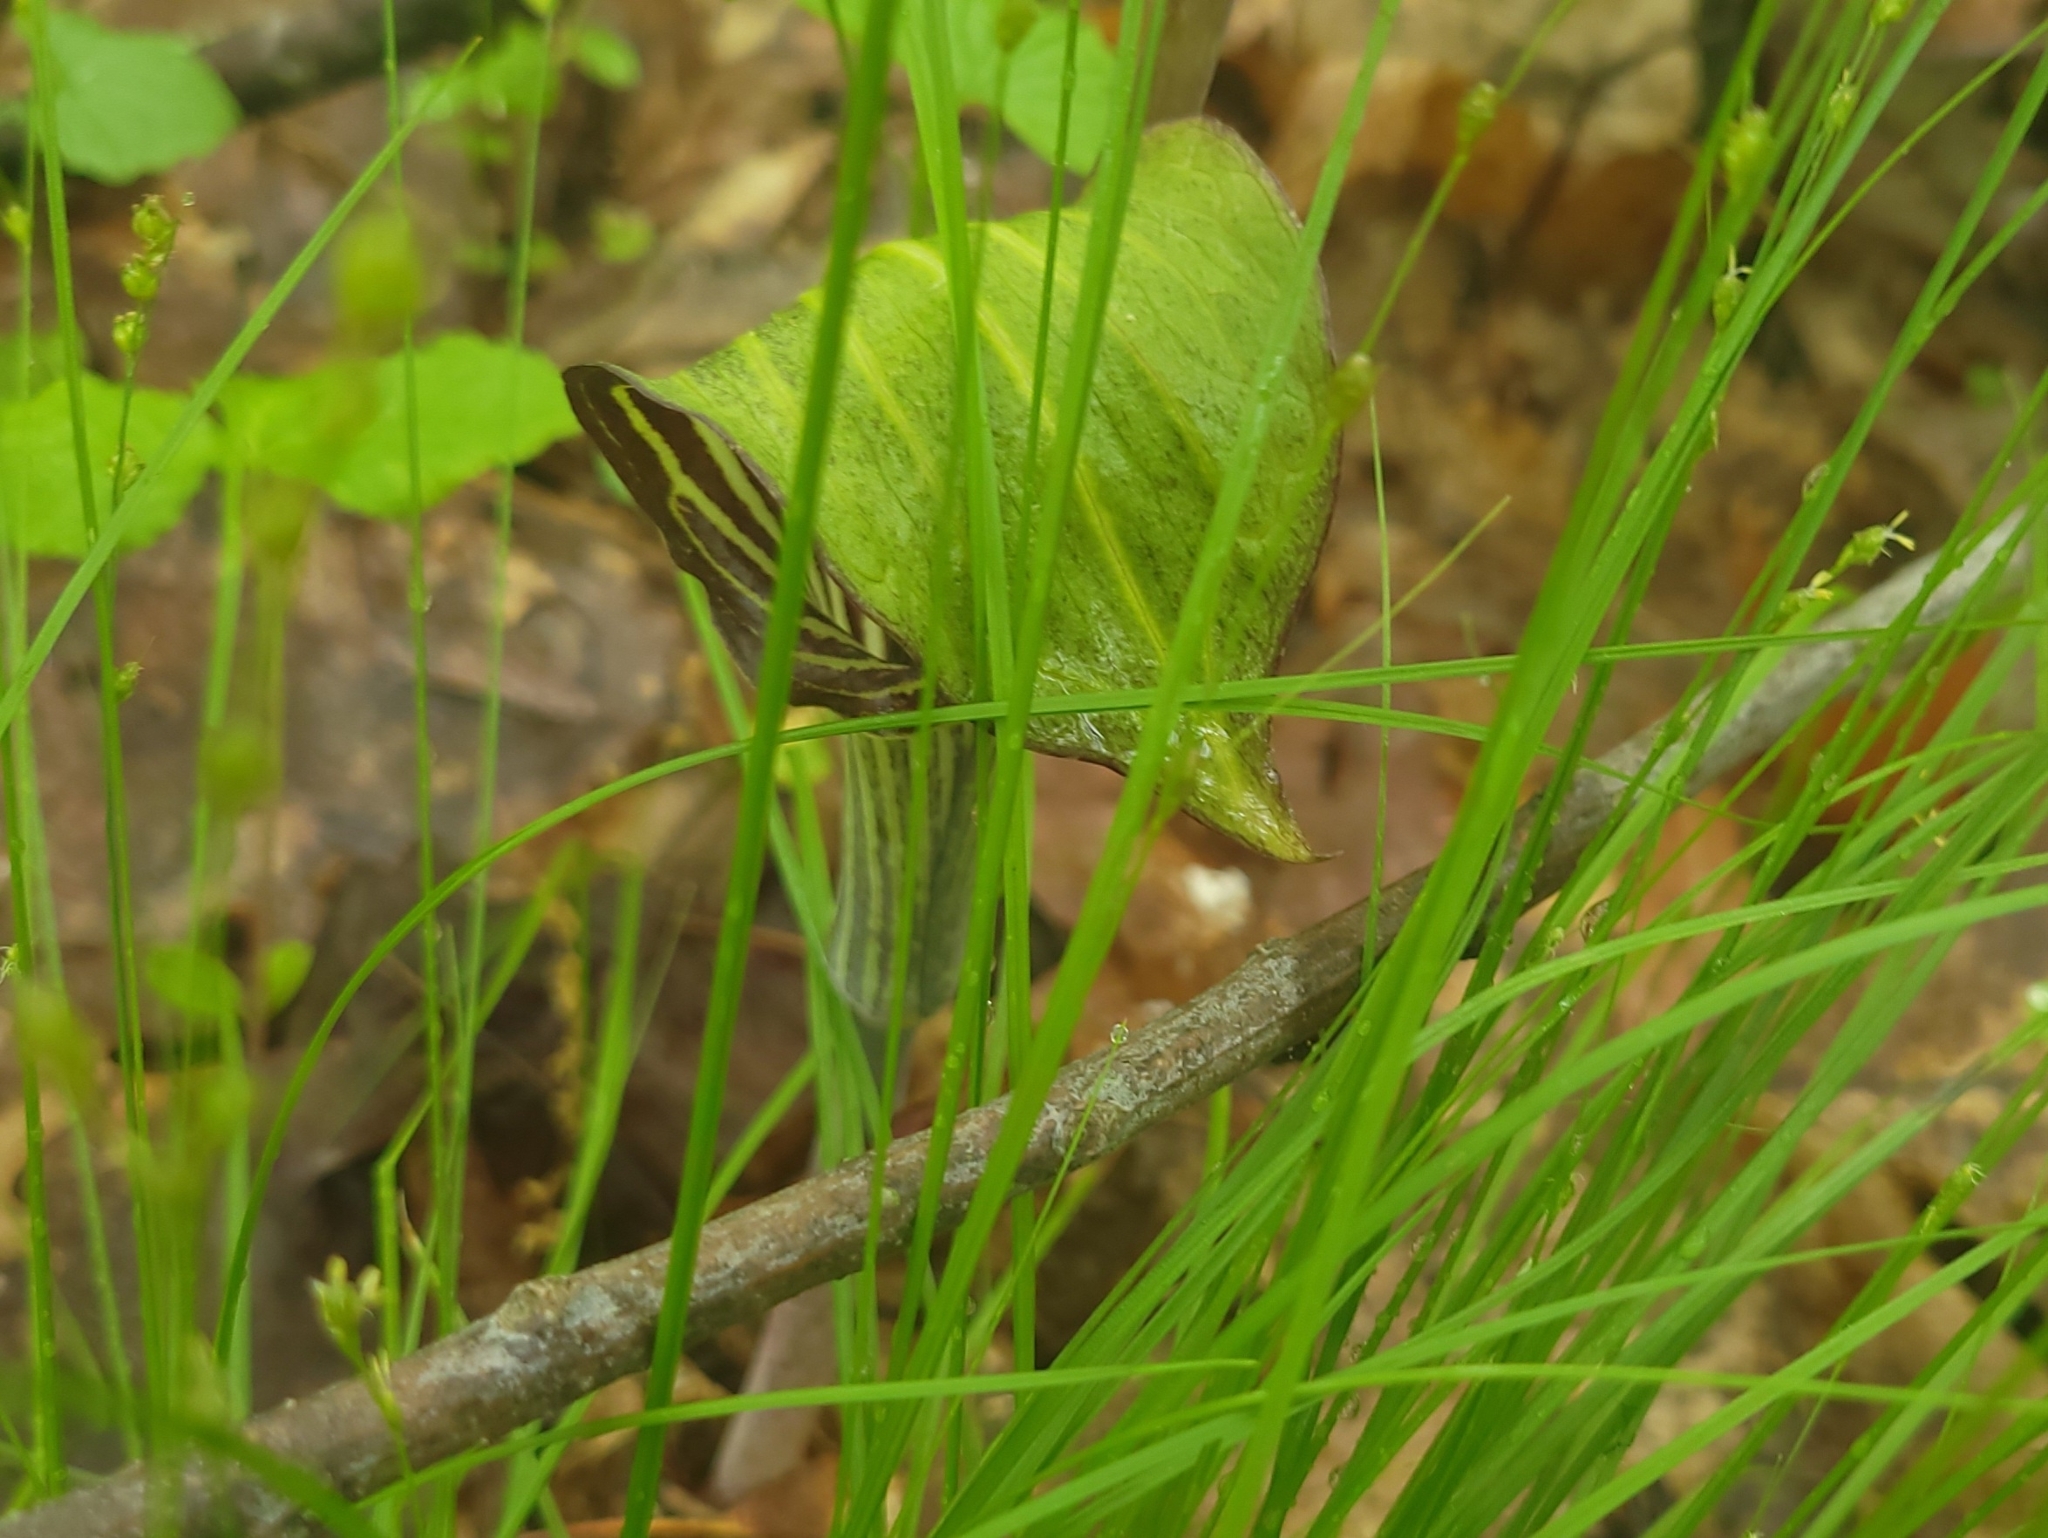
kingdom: Plantae
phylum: Tracheophyta
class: Liliopsida
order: Alismatales
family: Araceae
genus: Arisaema
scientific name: Arisaema triphyllum
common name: Jack-in-the-pulpit
